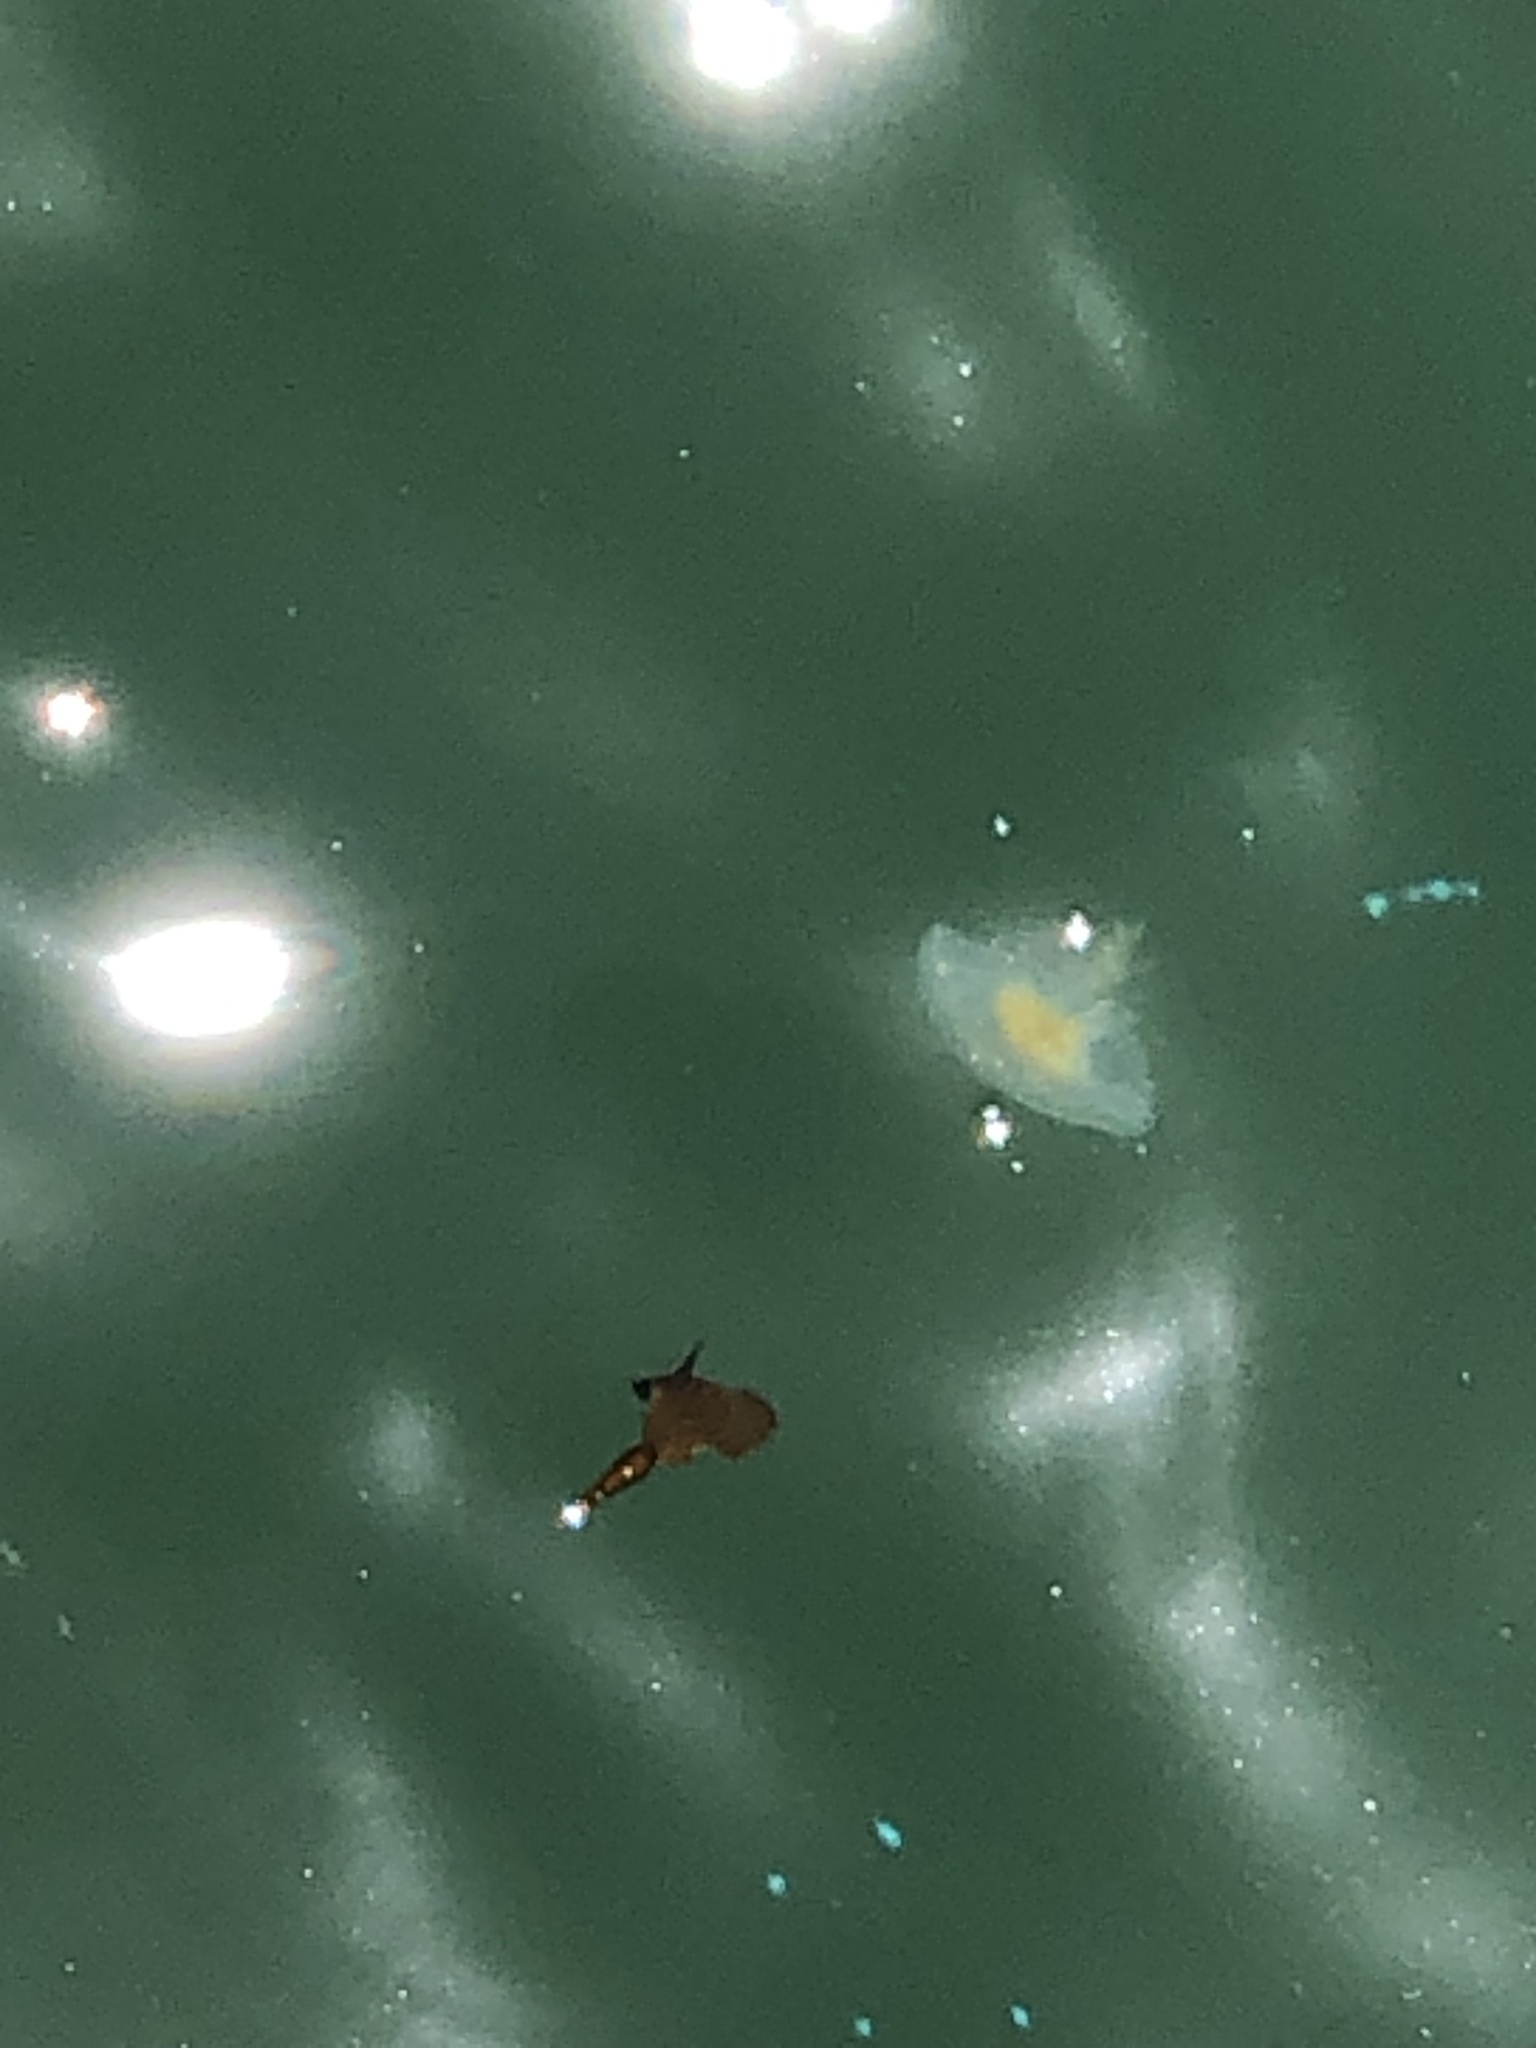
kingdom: Animalia
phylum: Cnidaria
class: Scyphozoa
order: Semaeostomeae
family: Phacellophoridae
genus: Phacellophora
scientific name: Phacellophora camtschatica
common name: Fried-egg jellyfish
